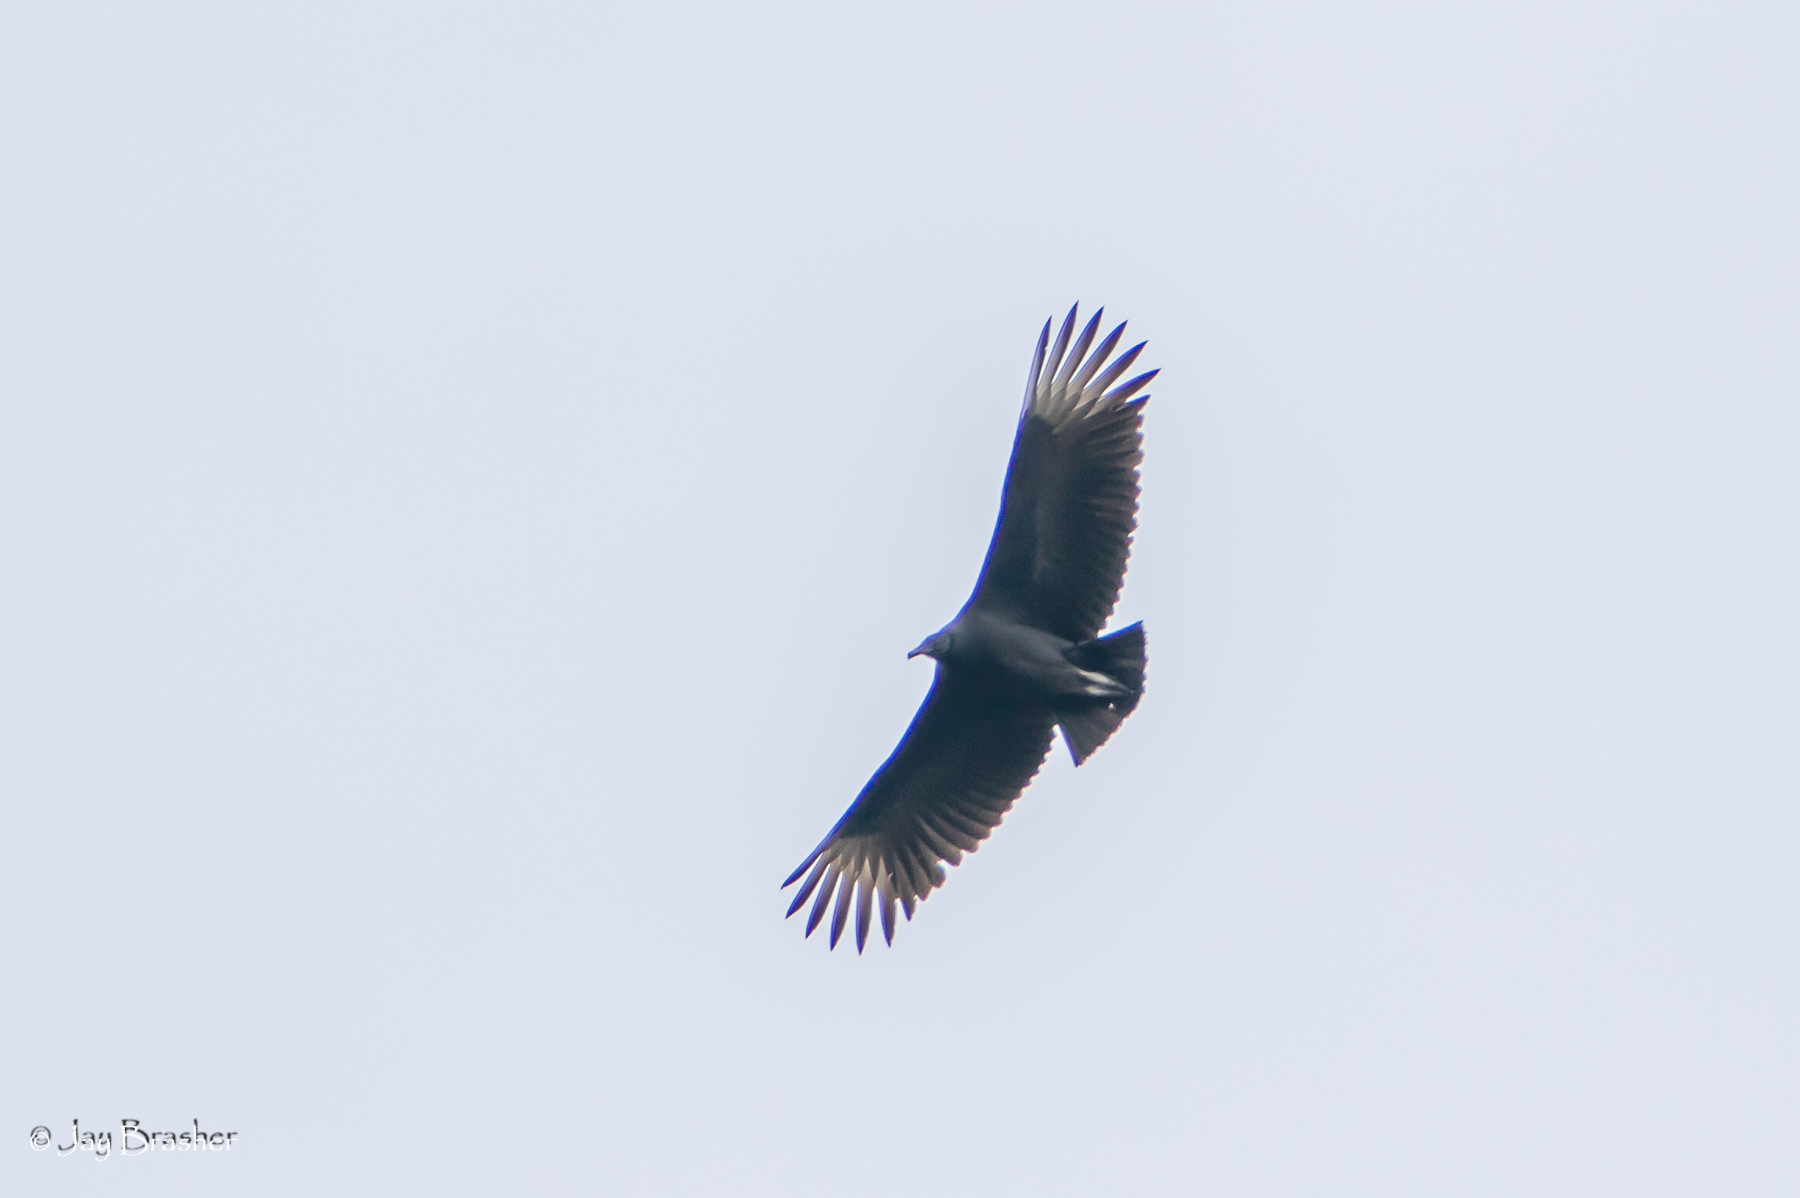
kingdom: Animalia
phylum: Chordata
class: Aves
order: Accipitriformes
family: Cathartidae
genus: Coragyps
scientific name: Coragyps atratus
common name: Black vulture
